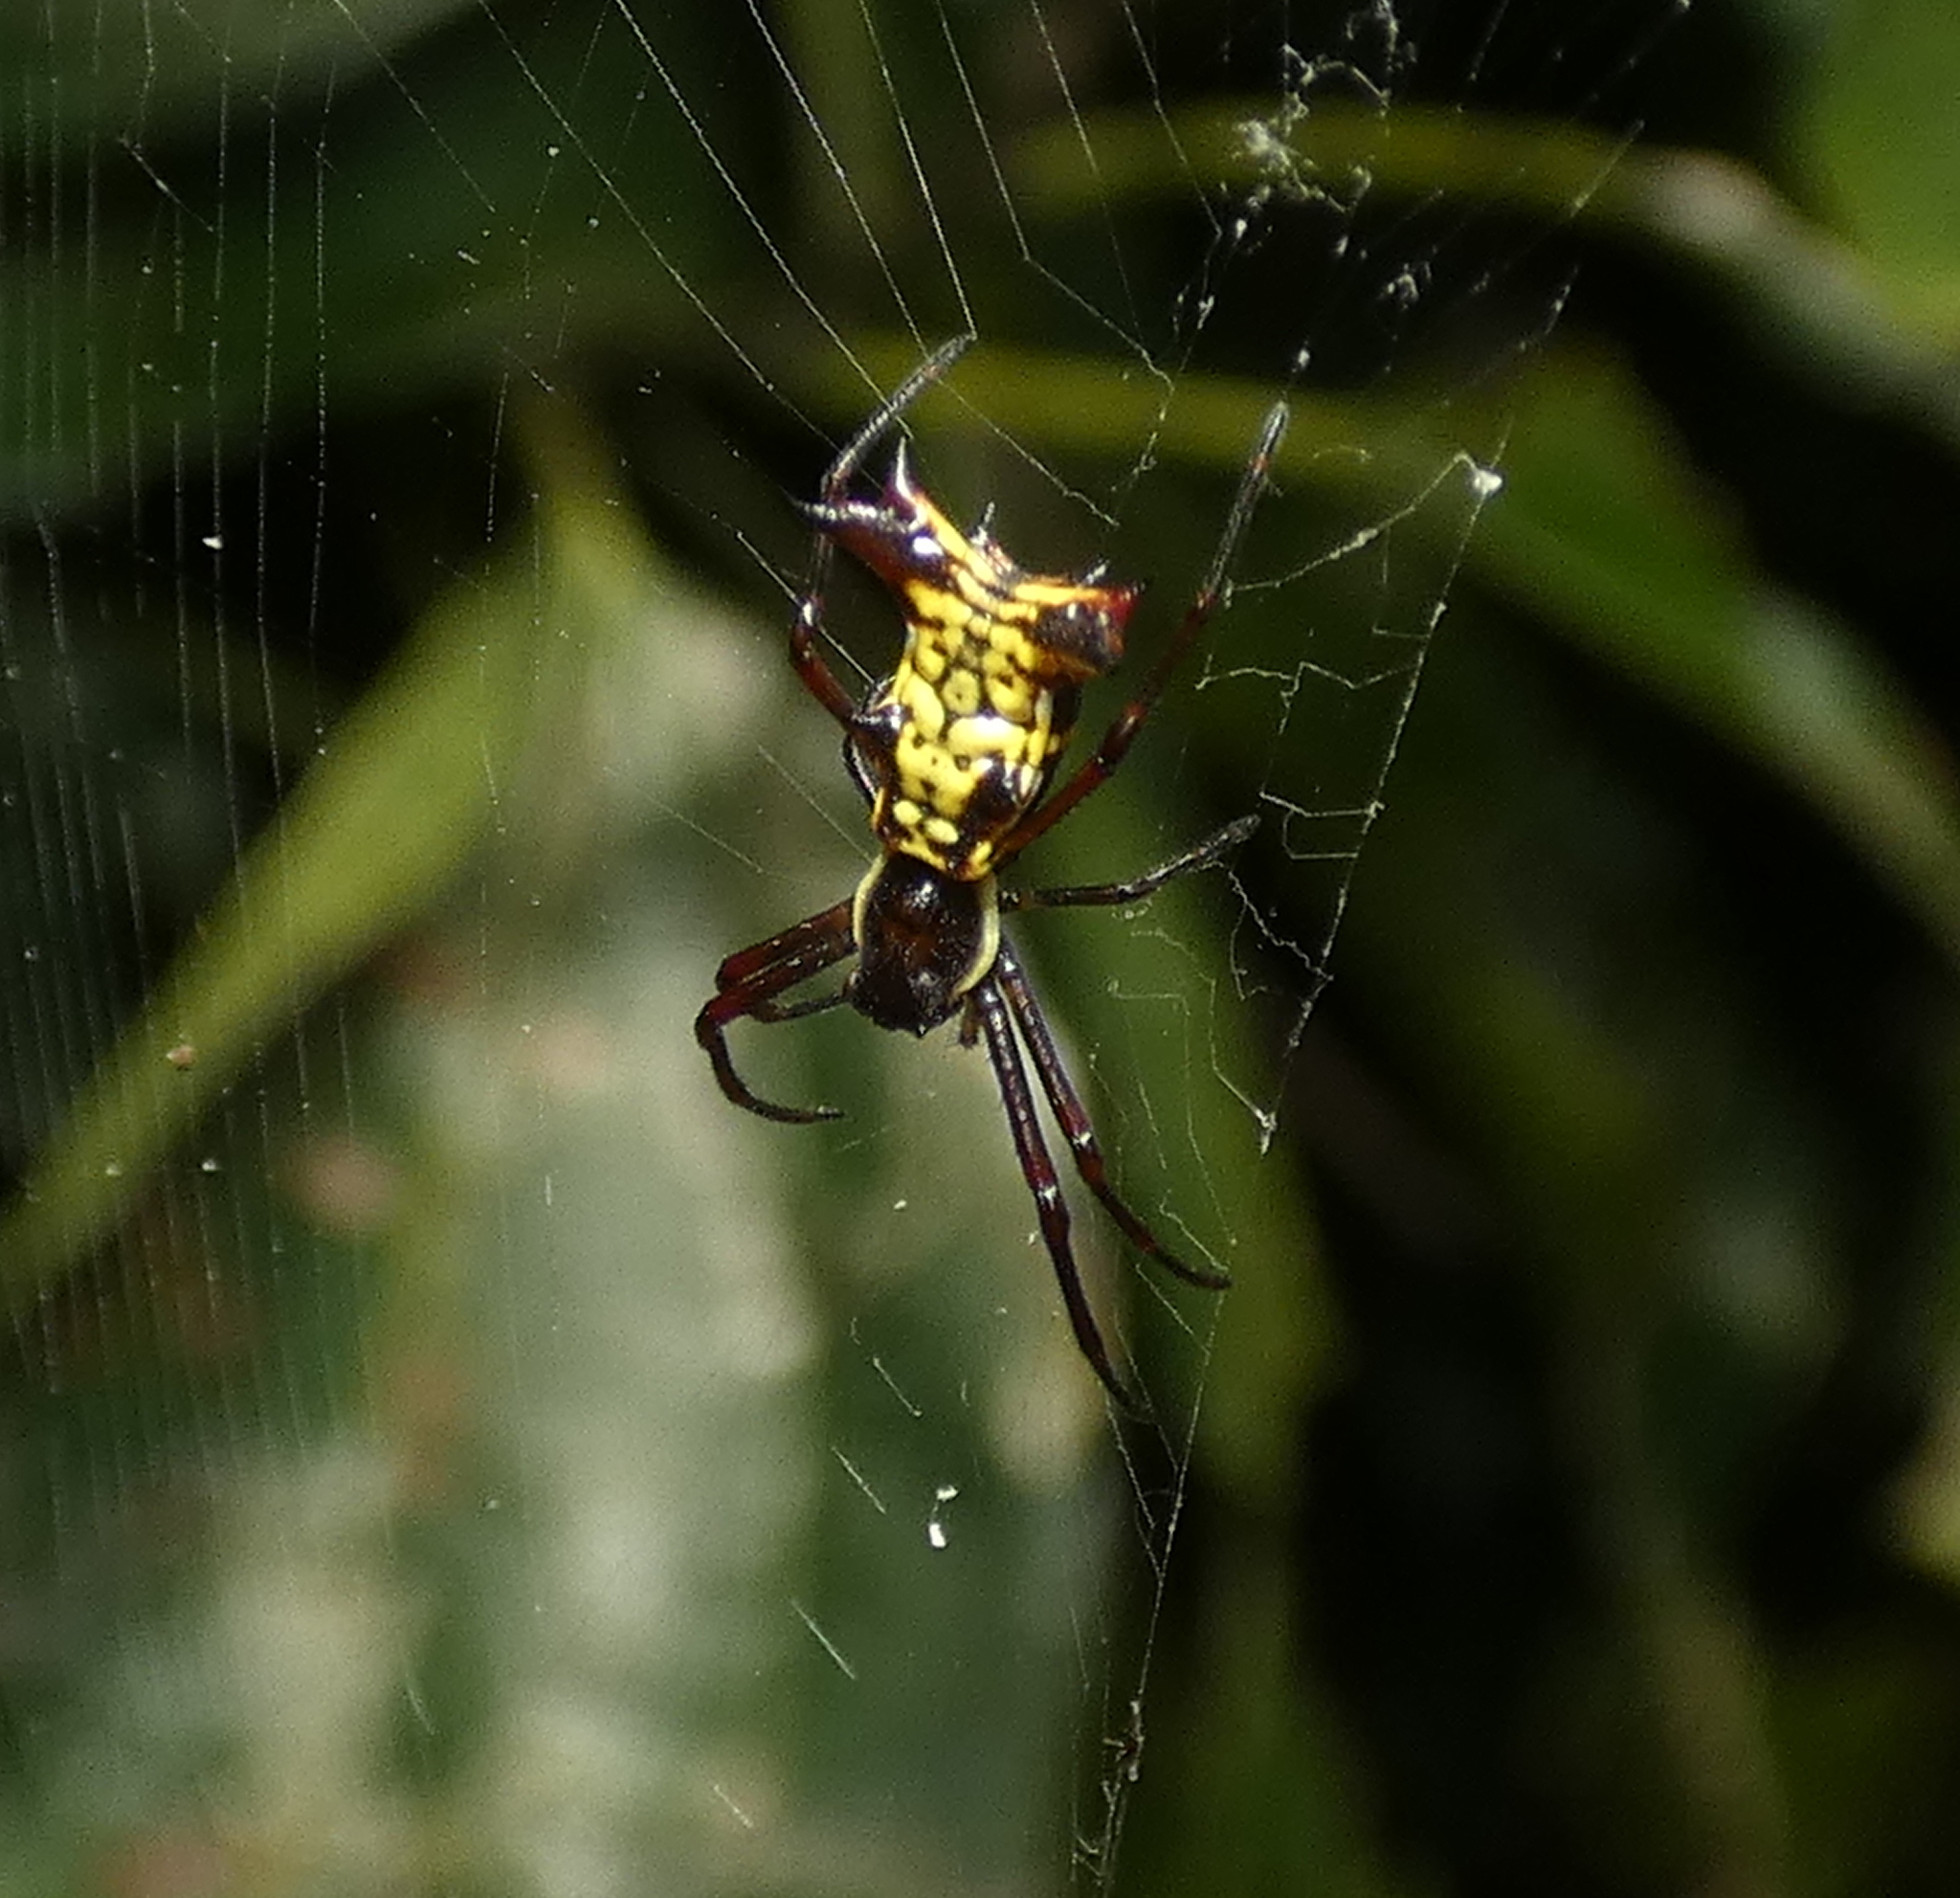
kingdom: Animalia
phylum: Arthropoda
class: Arachnida
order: Araneae
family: Araneidae
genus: Micrathena
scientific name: Micrathena fissispina
